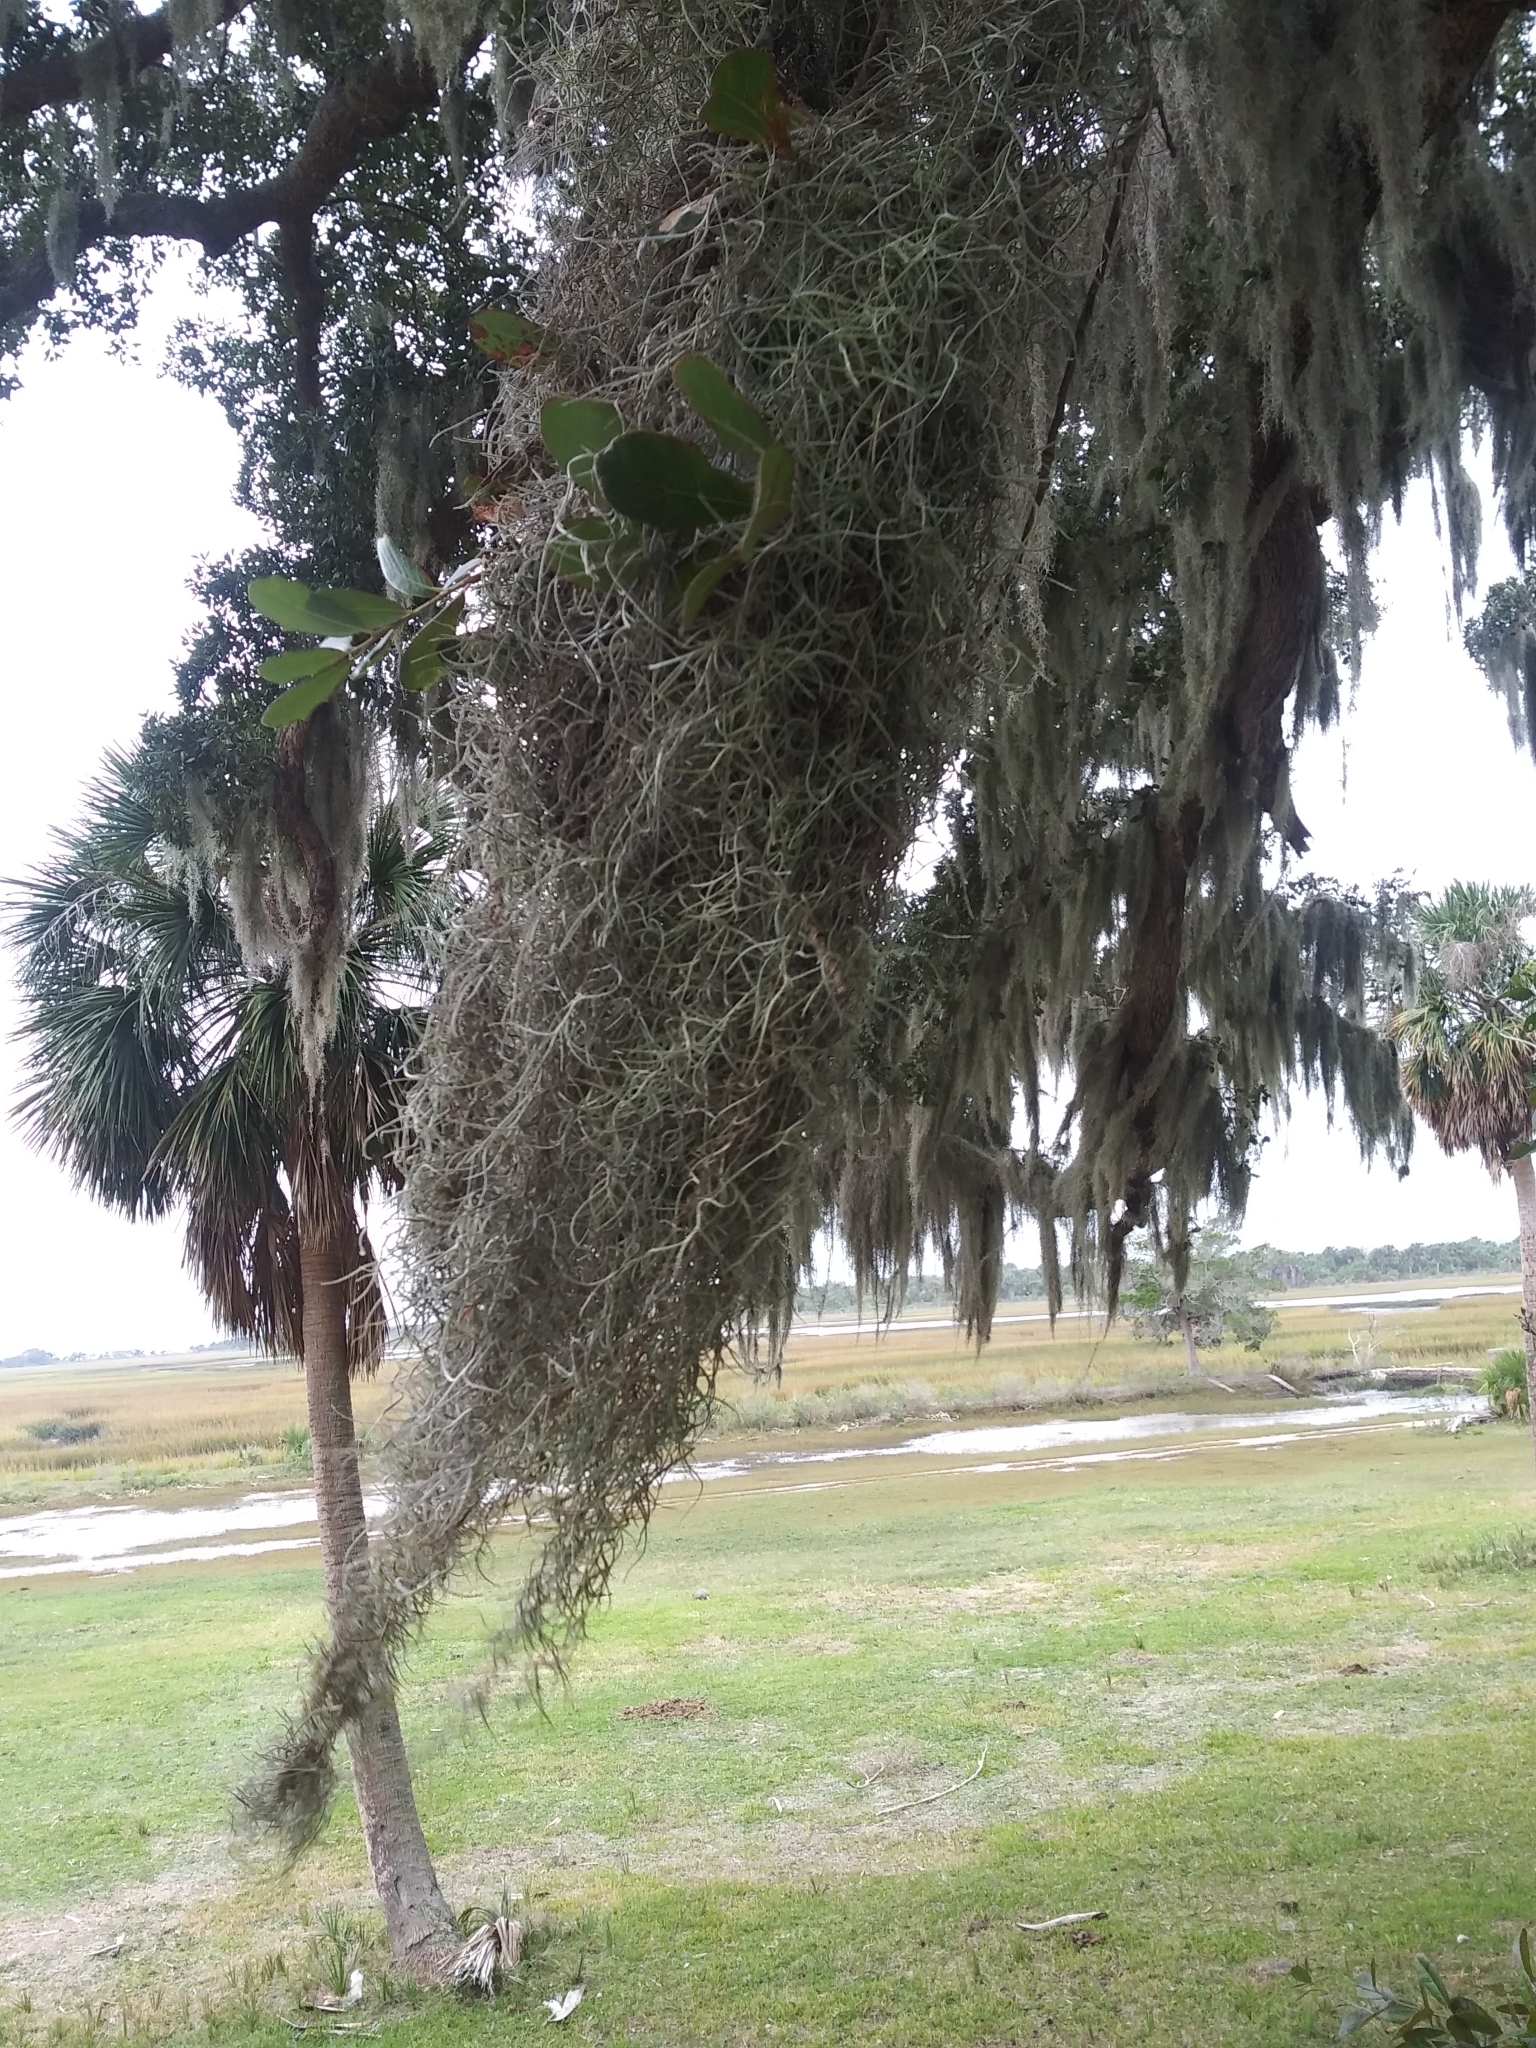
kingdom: Plantae
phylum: Tracheophyta
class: Liliopsida
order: Poales
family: Bromeliaceae
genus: Tillandsia
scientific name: Tillandsia usneoides
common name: Spanish moss
